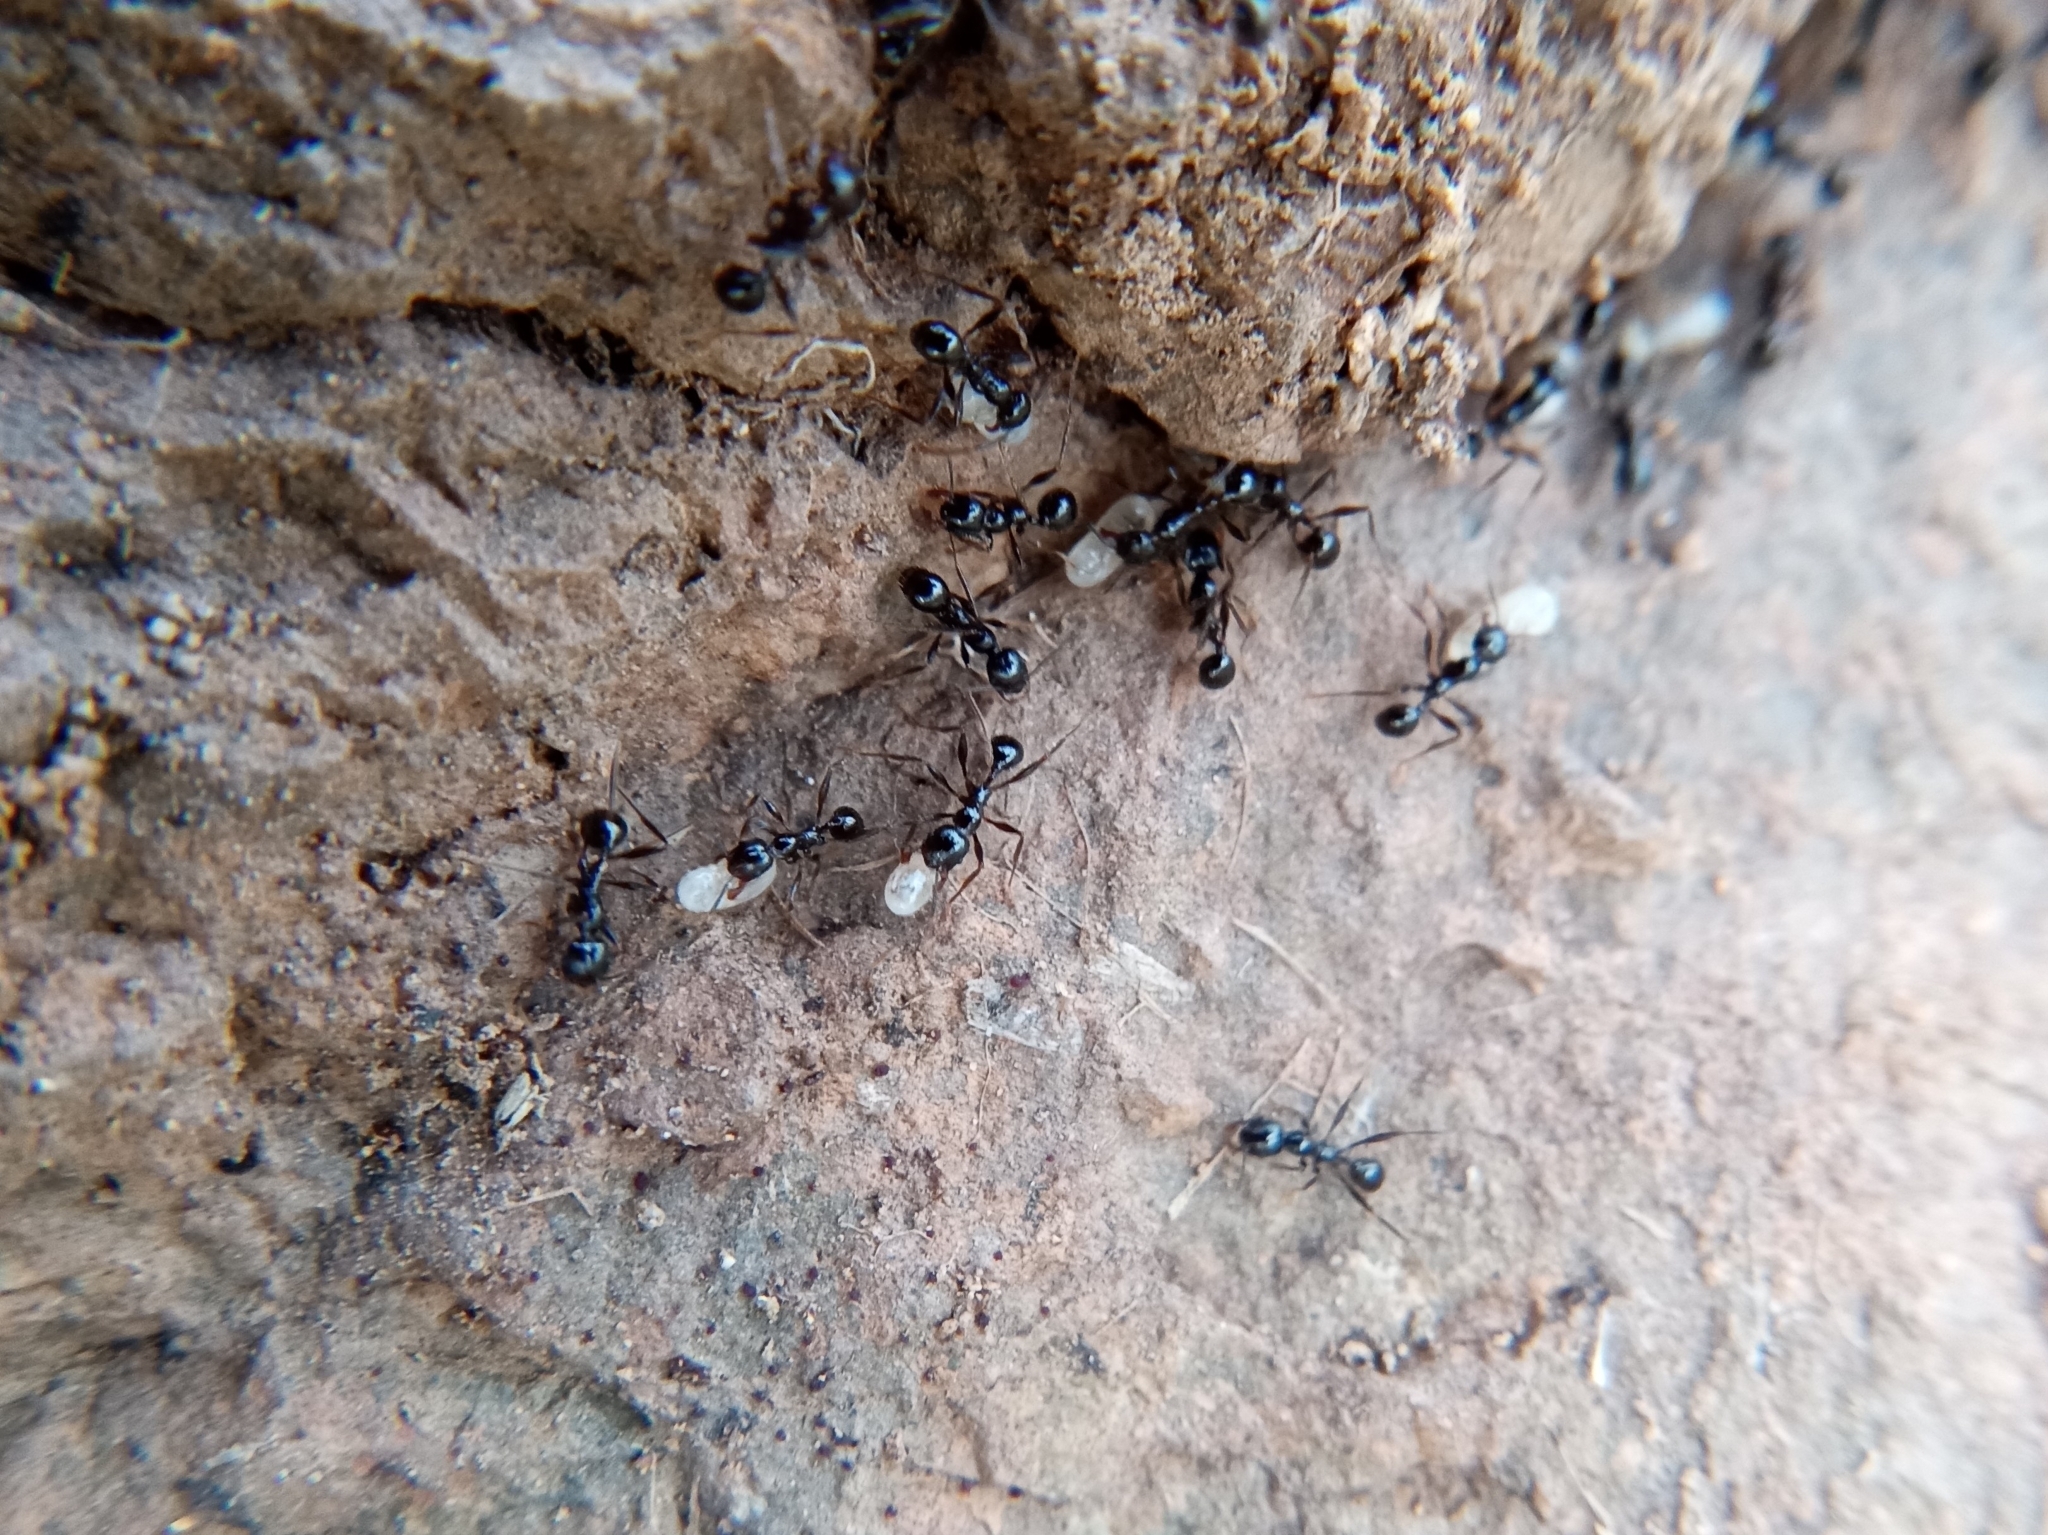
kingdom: Animalia
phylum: Arthropoda
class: Insecta
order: Hymenoptera
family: Formicidae
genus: Pheidole
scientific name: Pheidole rhea
